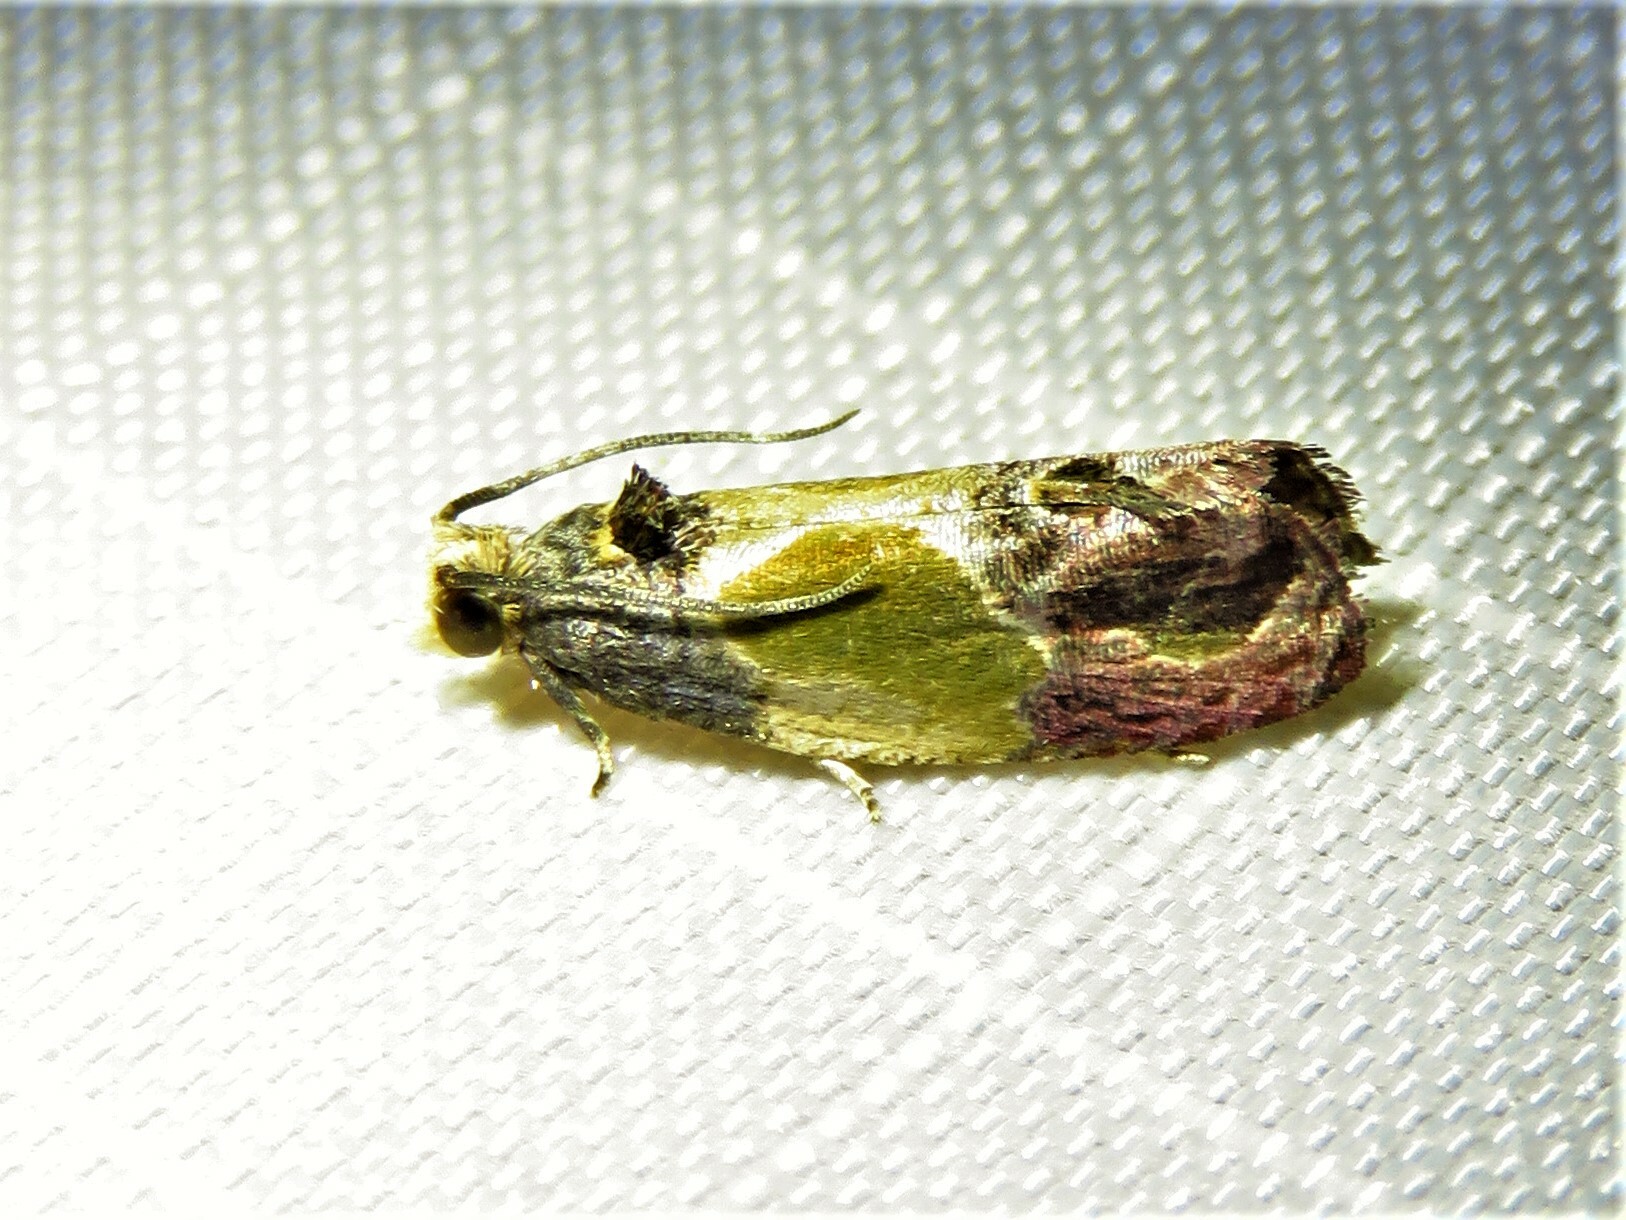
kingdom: Animalia
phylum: Arthropoda
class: Insecta
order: Lepidoptera
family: Tortricidae
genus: Eumarozia
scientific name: Eumarozia malachitana
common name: Sculptured moth
